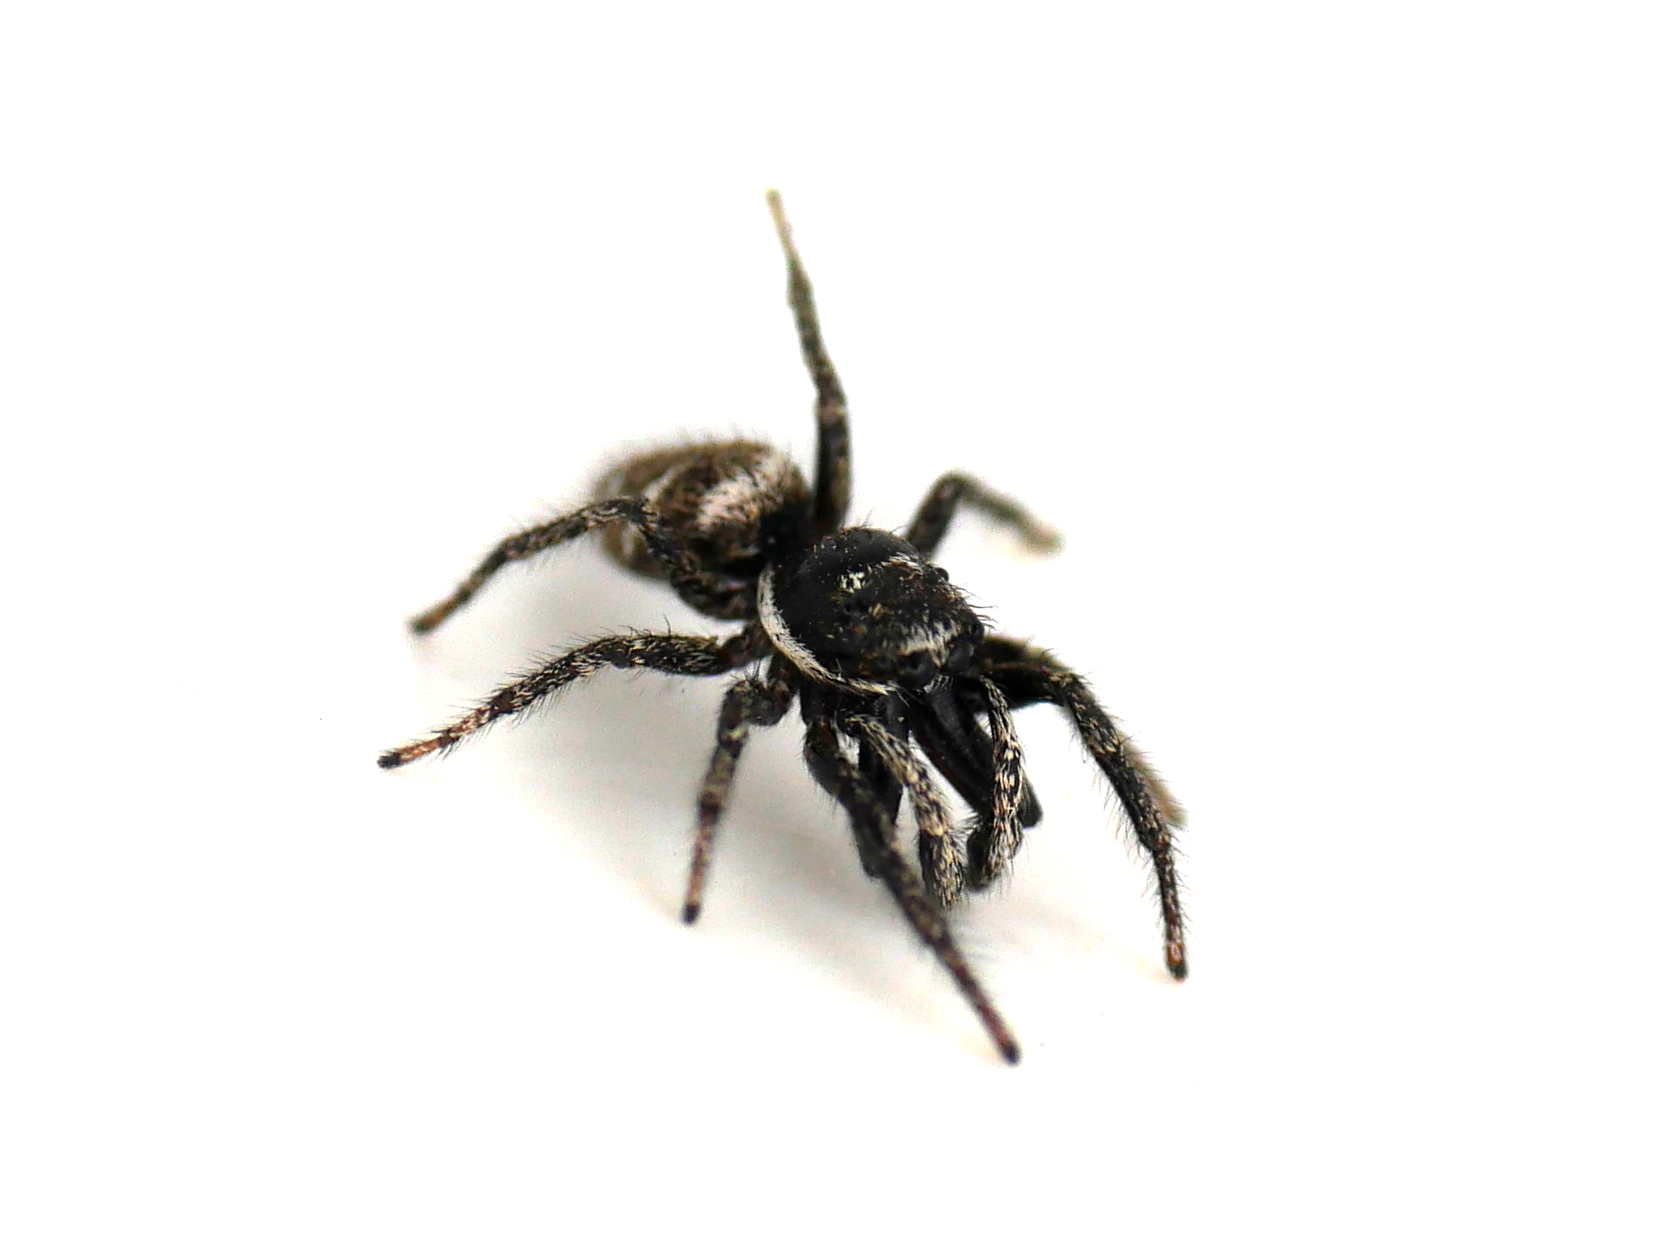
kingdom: Animalia
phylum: Arthropoda
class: Arachnida
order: Araneae
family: Salticidae
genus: Salticus
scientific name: Salticus scenicus
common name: Zebra jumper
